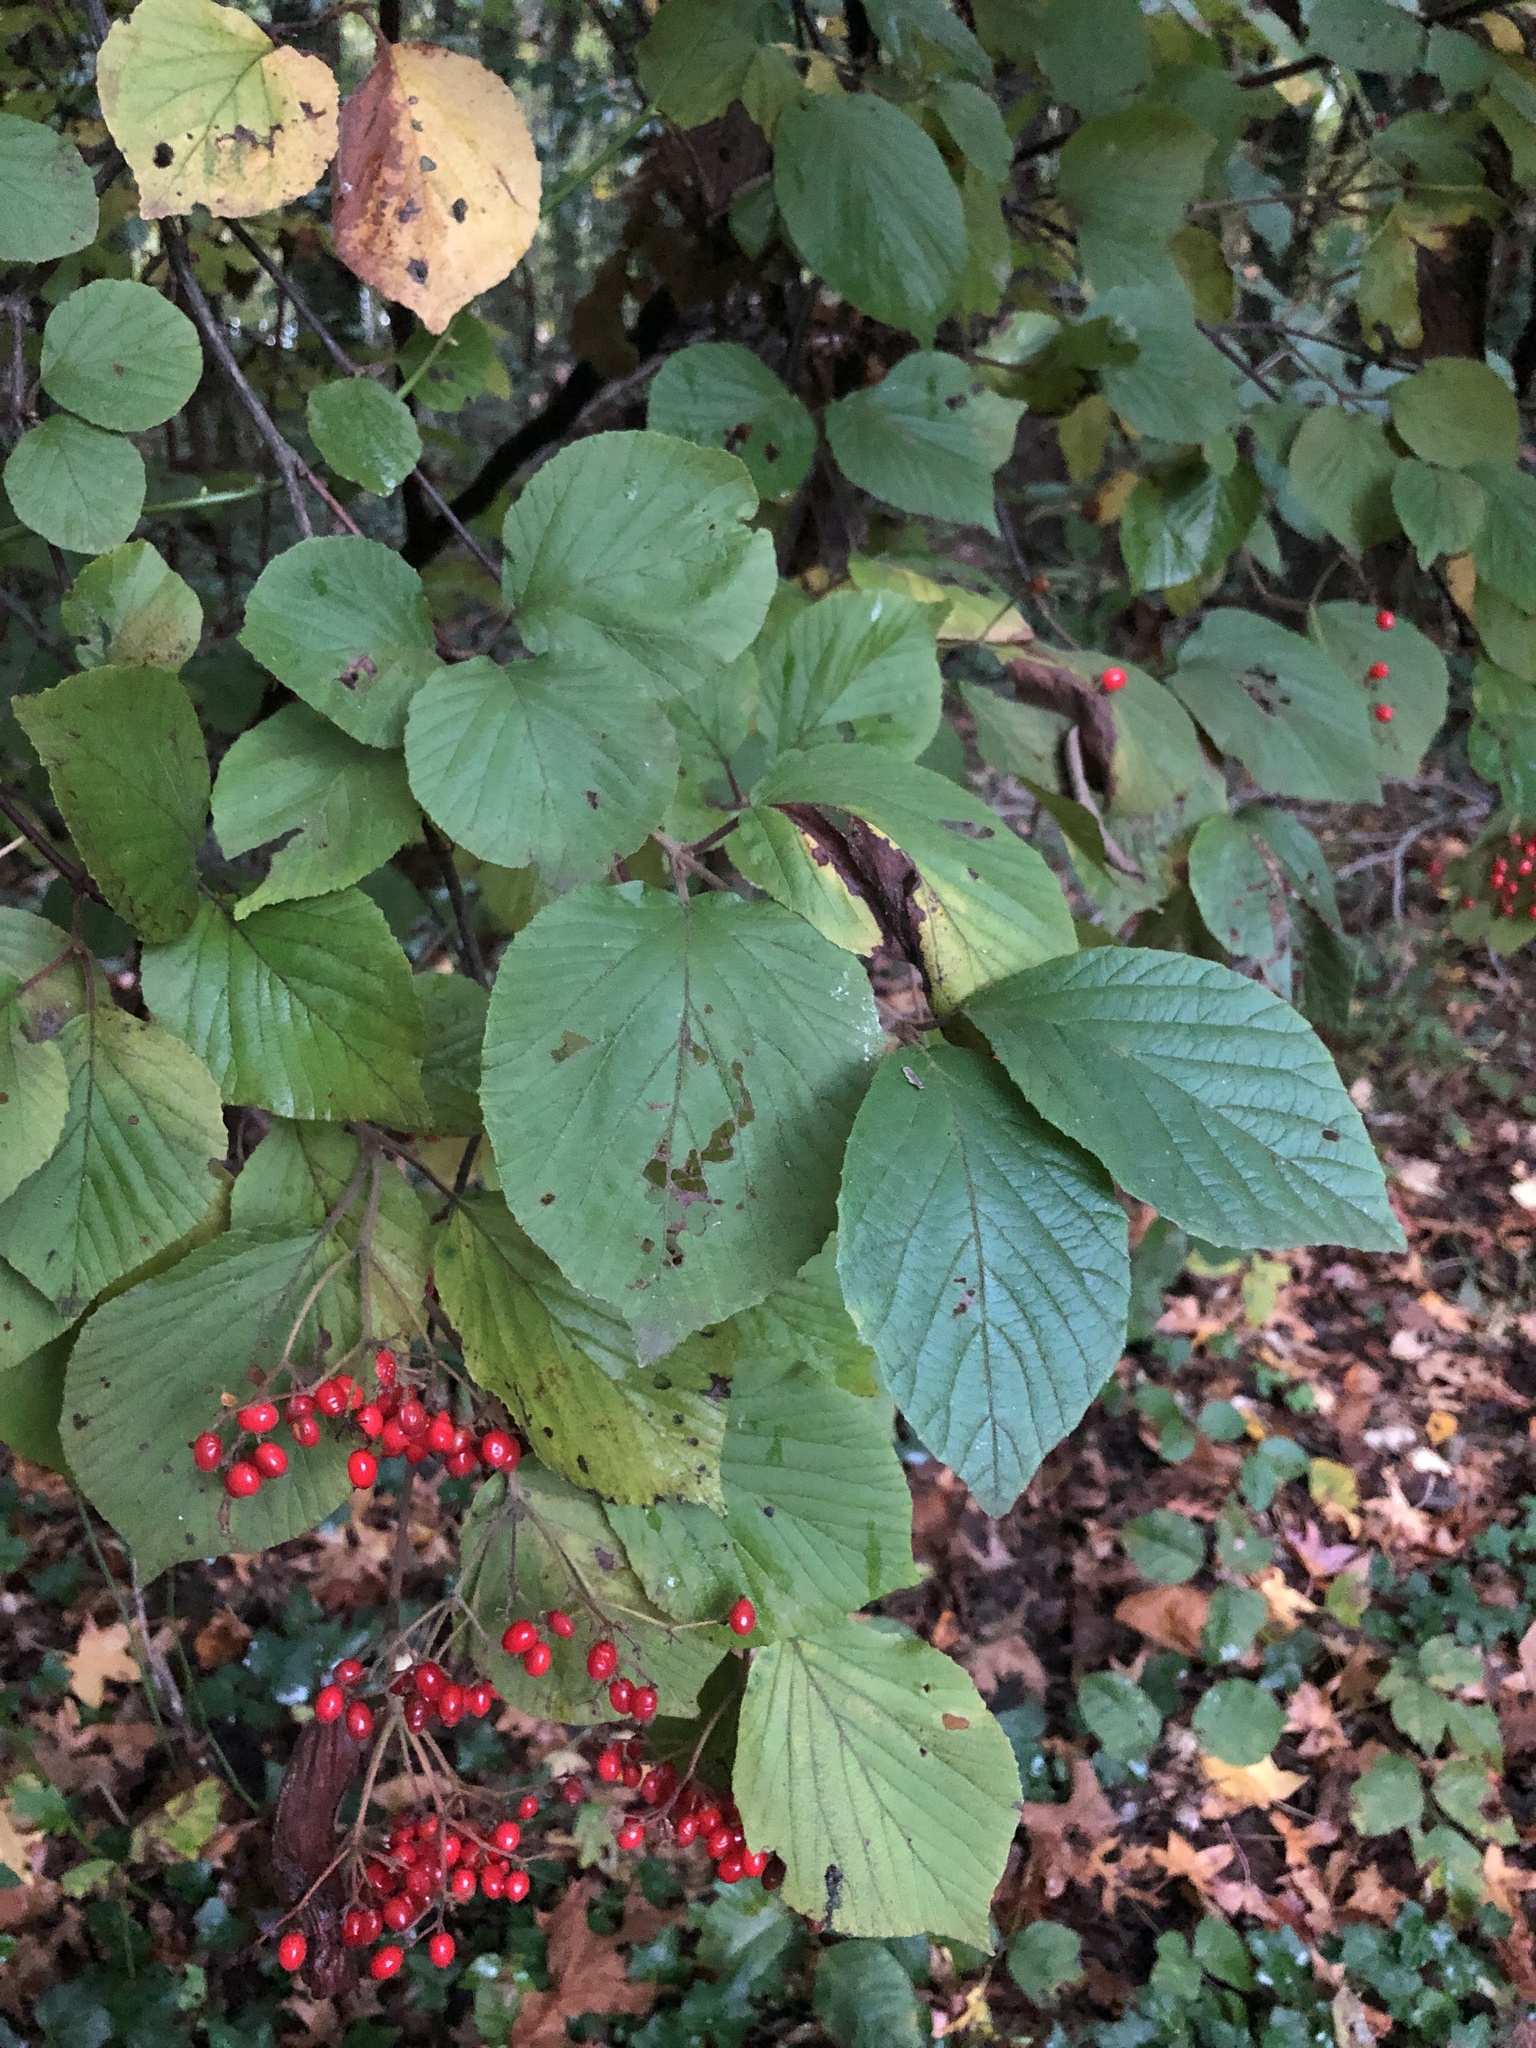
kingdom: Plantae
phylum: Tracheophyta
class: Magnoliopsida
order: Dipsacales
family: Viburnaceae
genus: Viburnum
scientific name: Viburnum dilatatum
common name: Linden arrowwood
